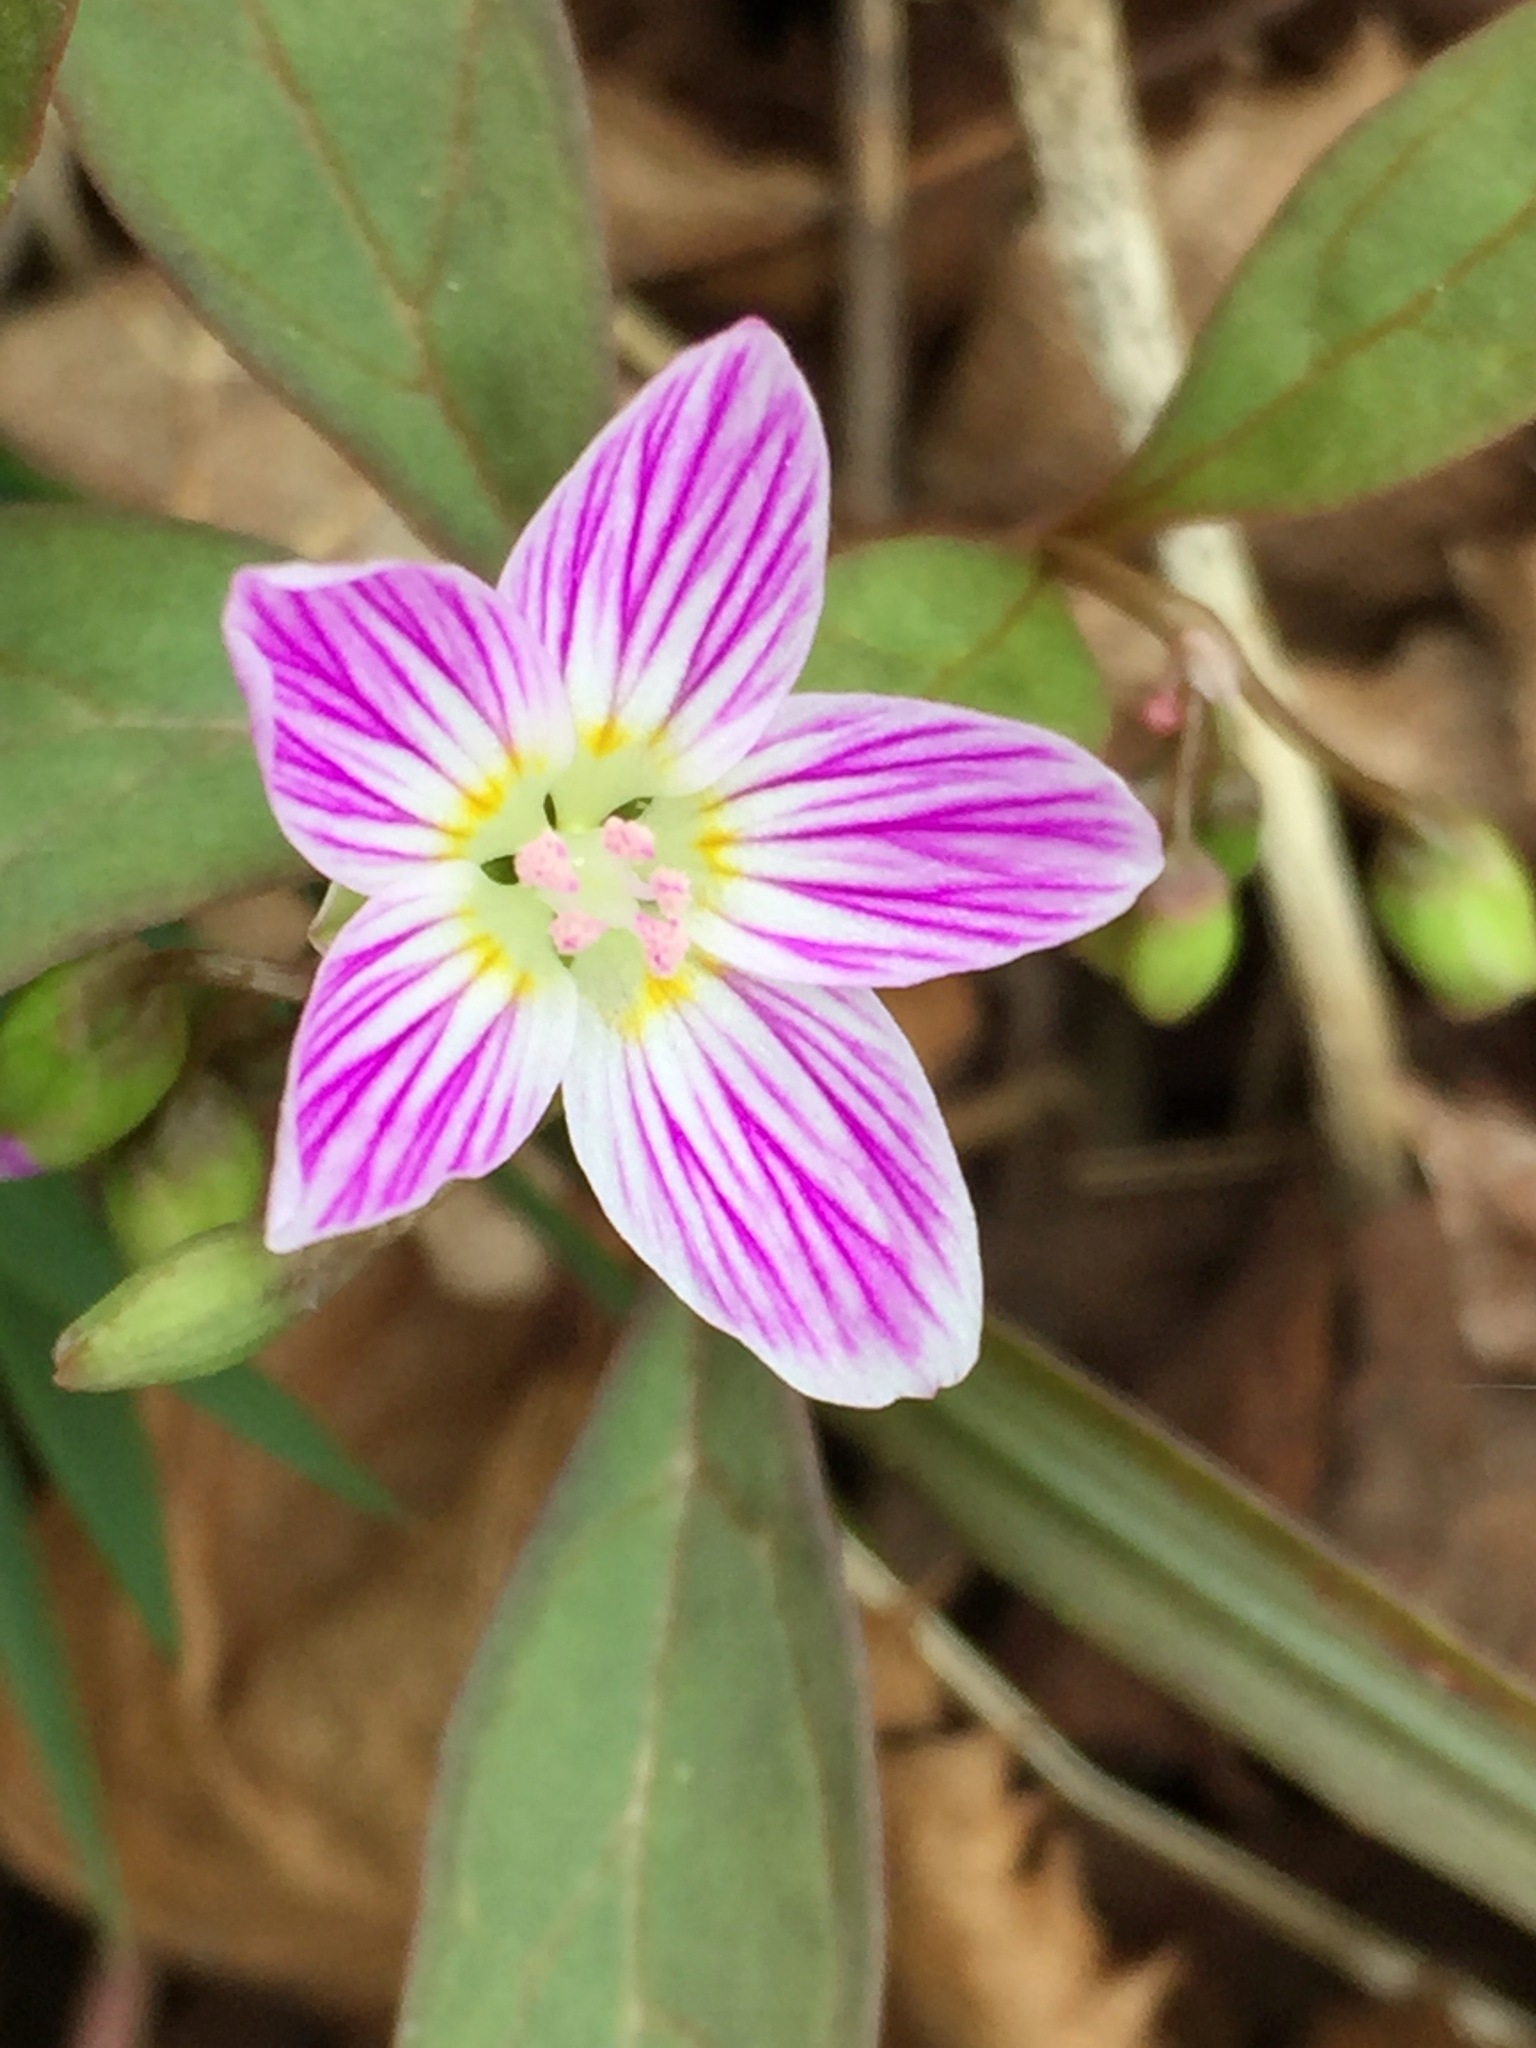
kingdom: Plantae
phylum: Tracheophyta
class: Magnoliopsida
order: Caryophyllales
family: Montiaceae
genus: Claytonia
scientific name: Claytonia caroliniana
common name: Carolina spring beauty
